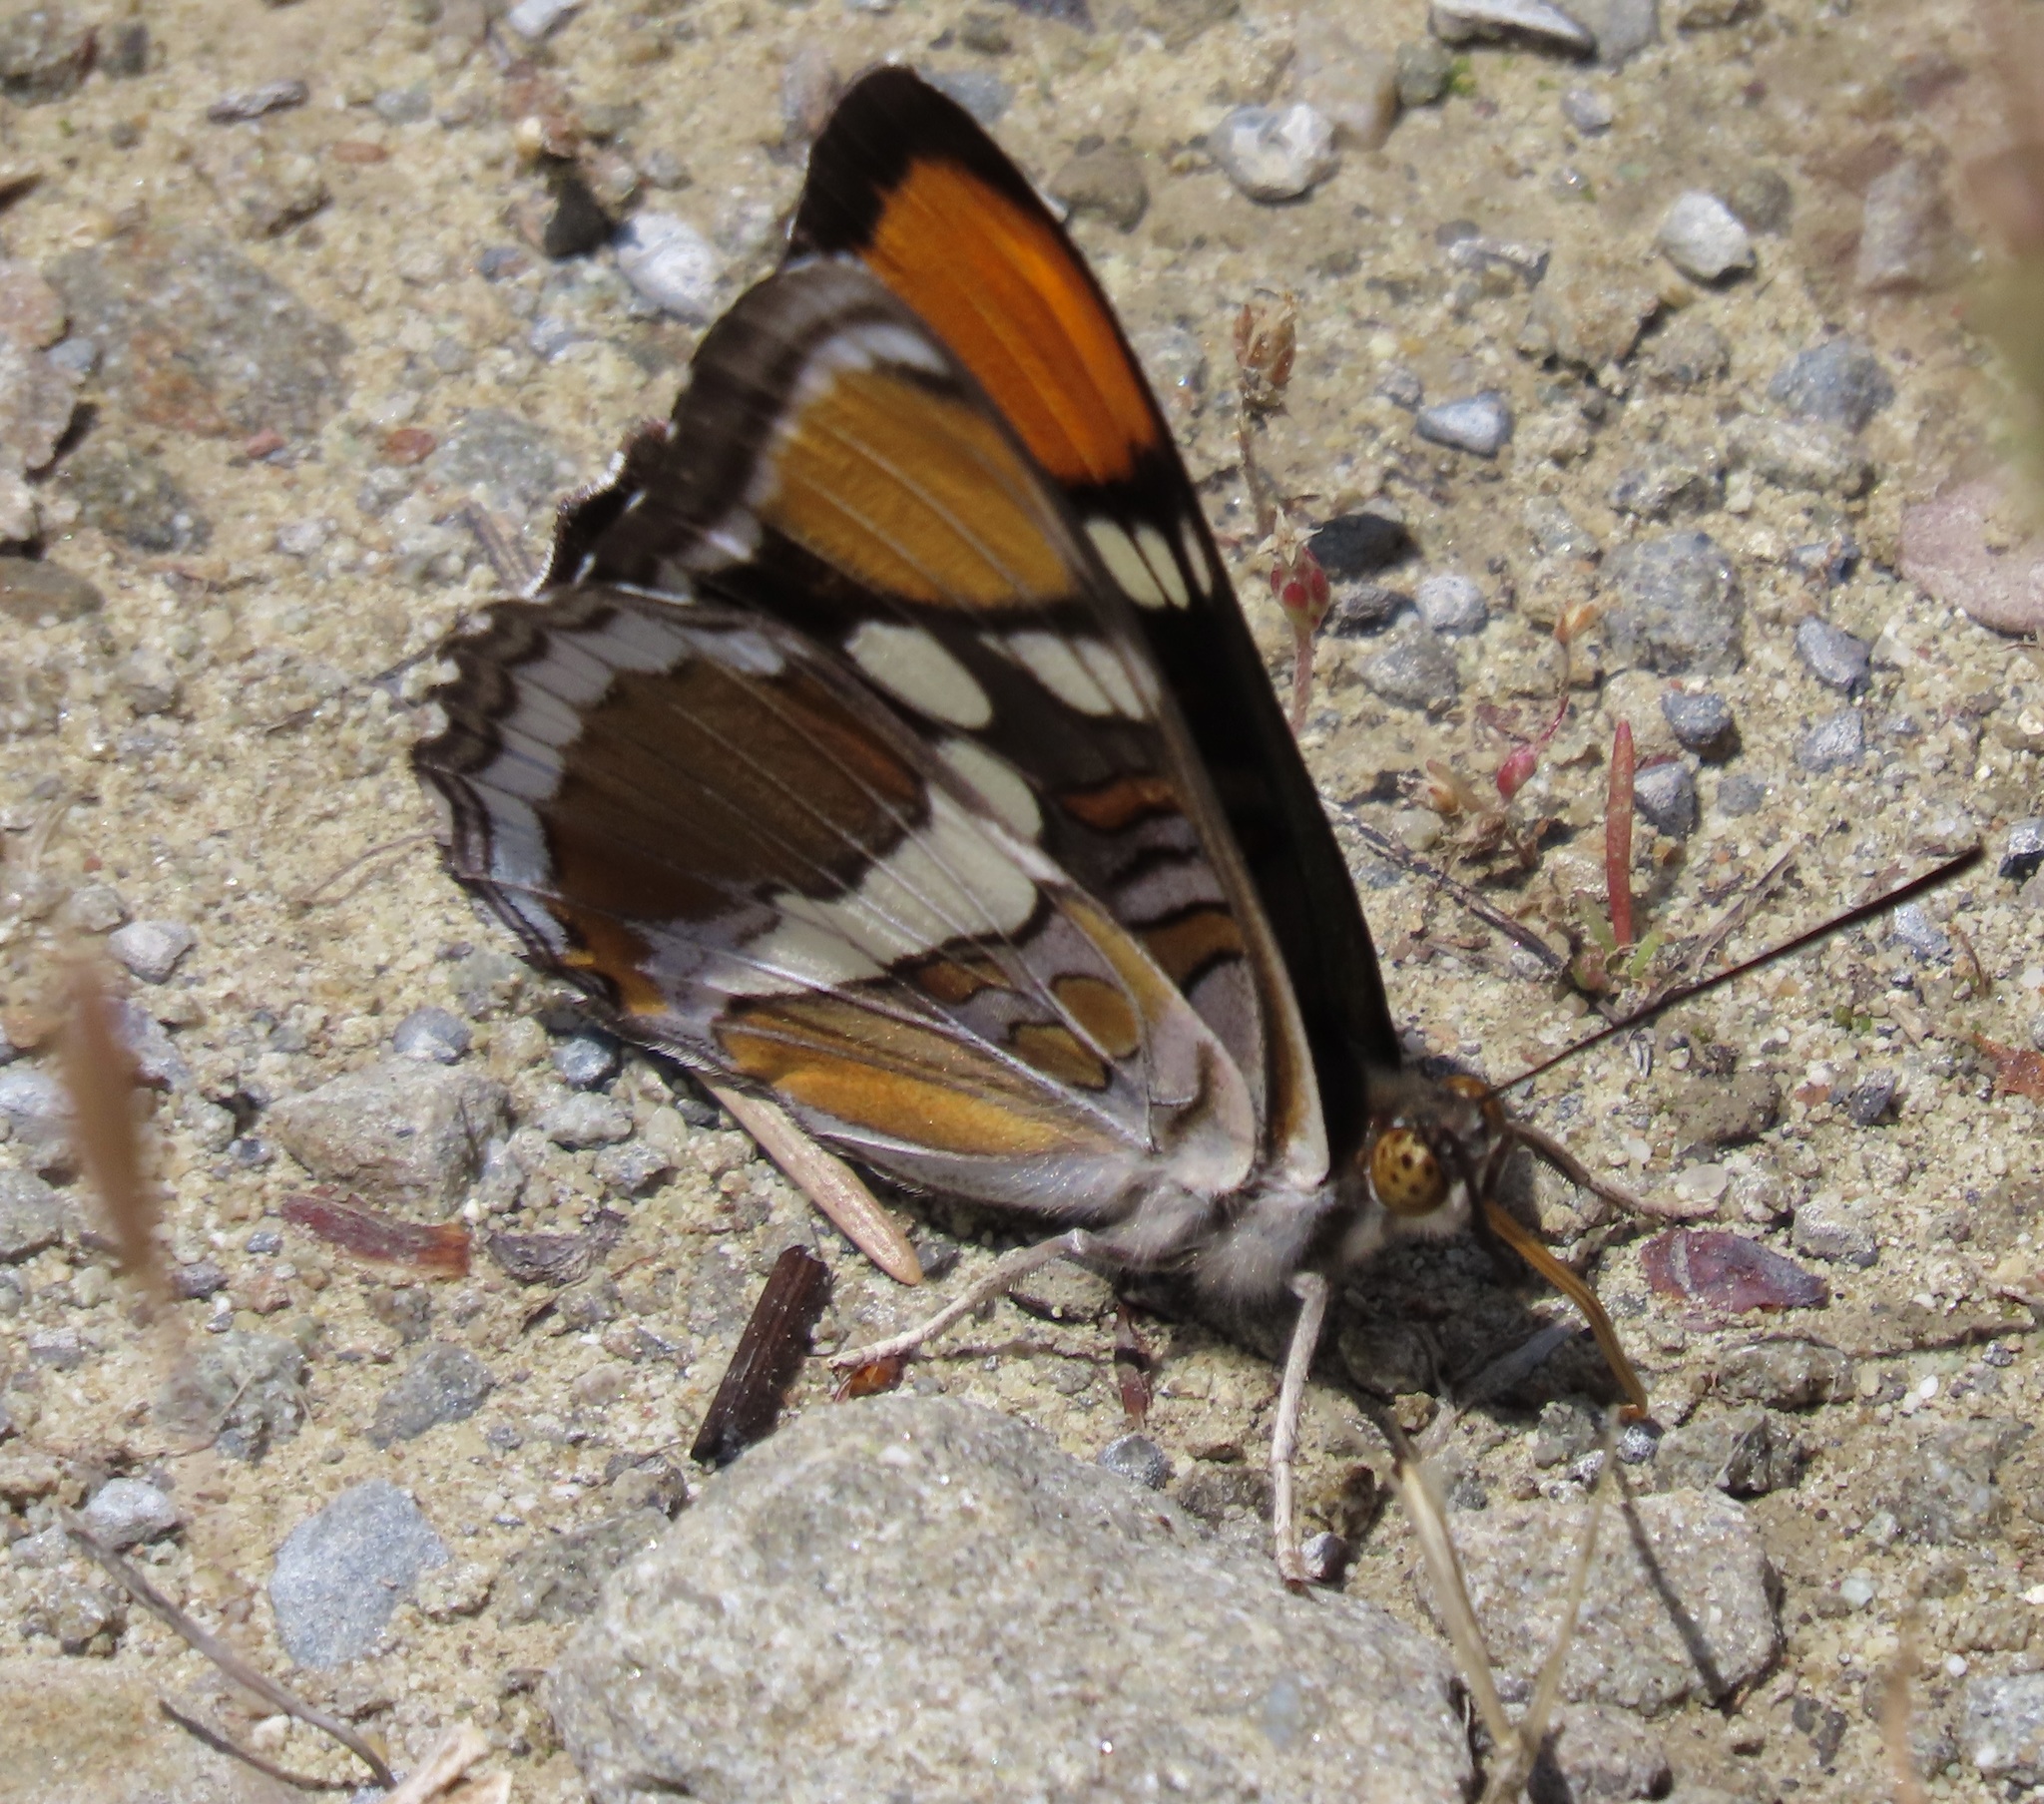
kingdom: Animalia
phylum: Arthropoda
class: Insecta
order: Lepidoptera
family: Nymphalidae
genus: Limenitis
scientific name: Limenitis bredowii
